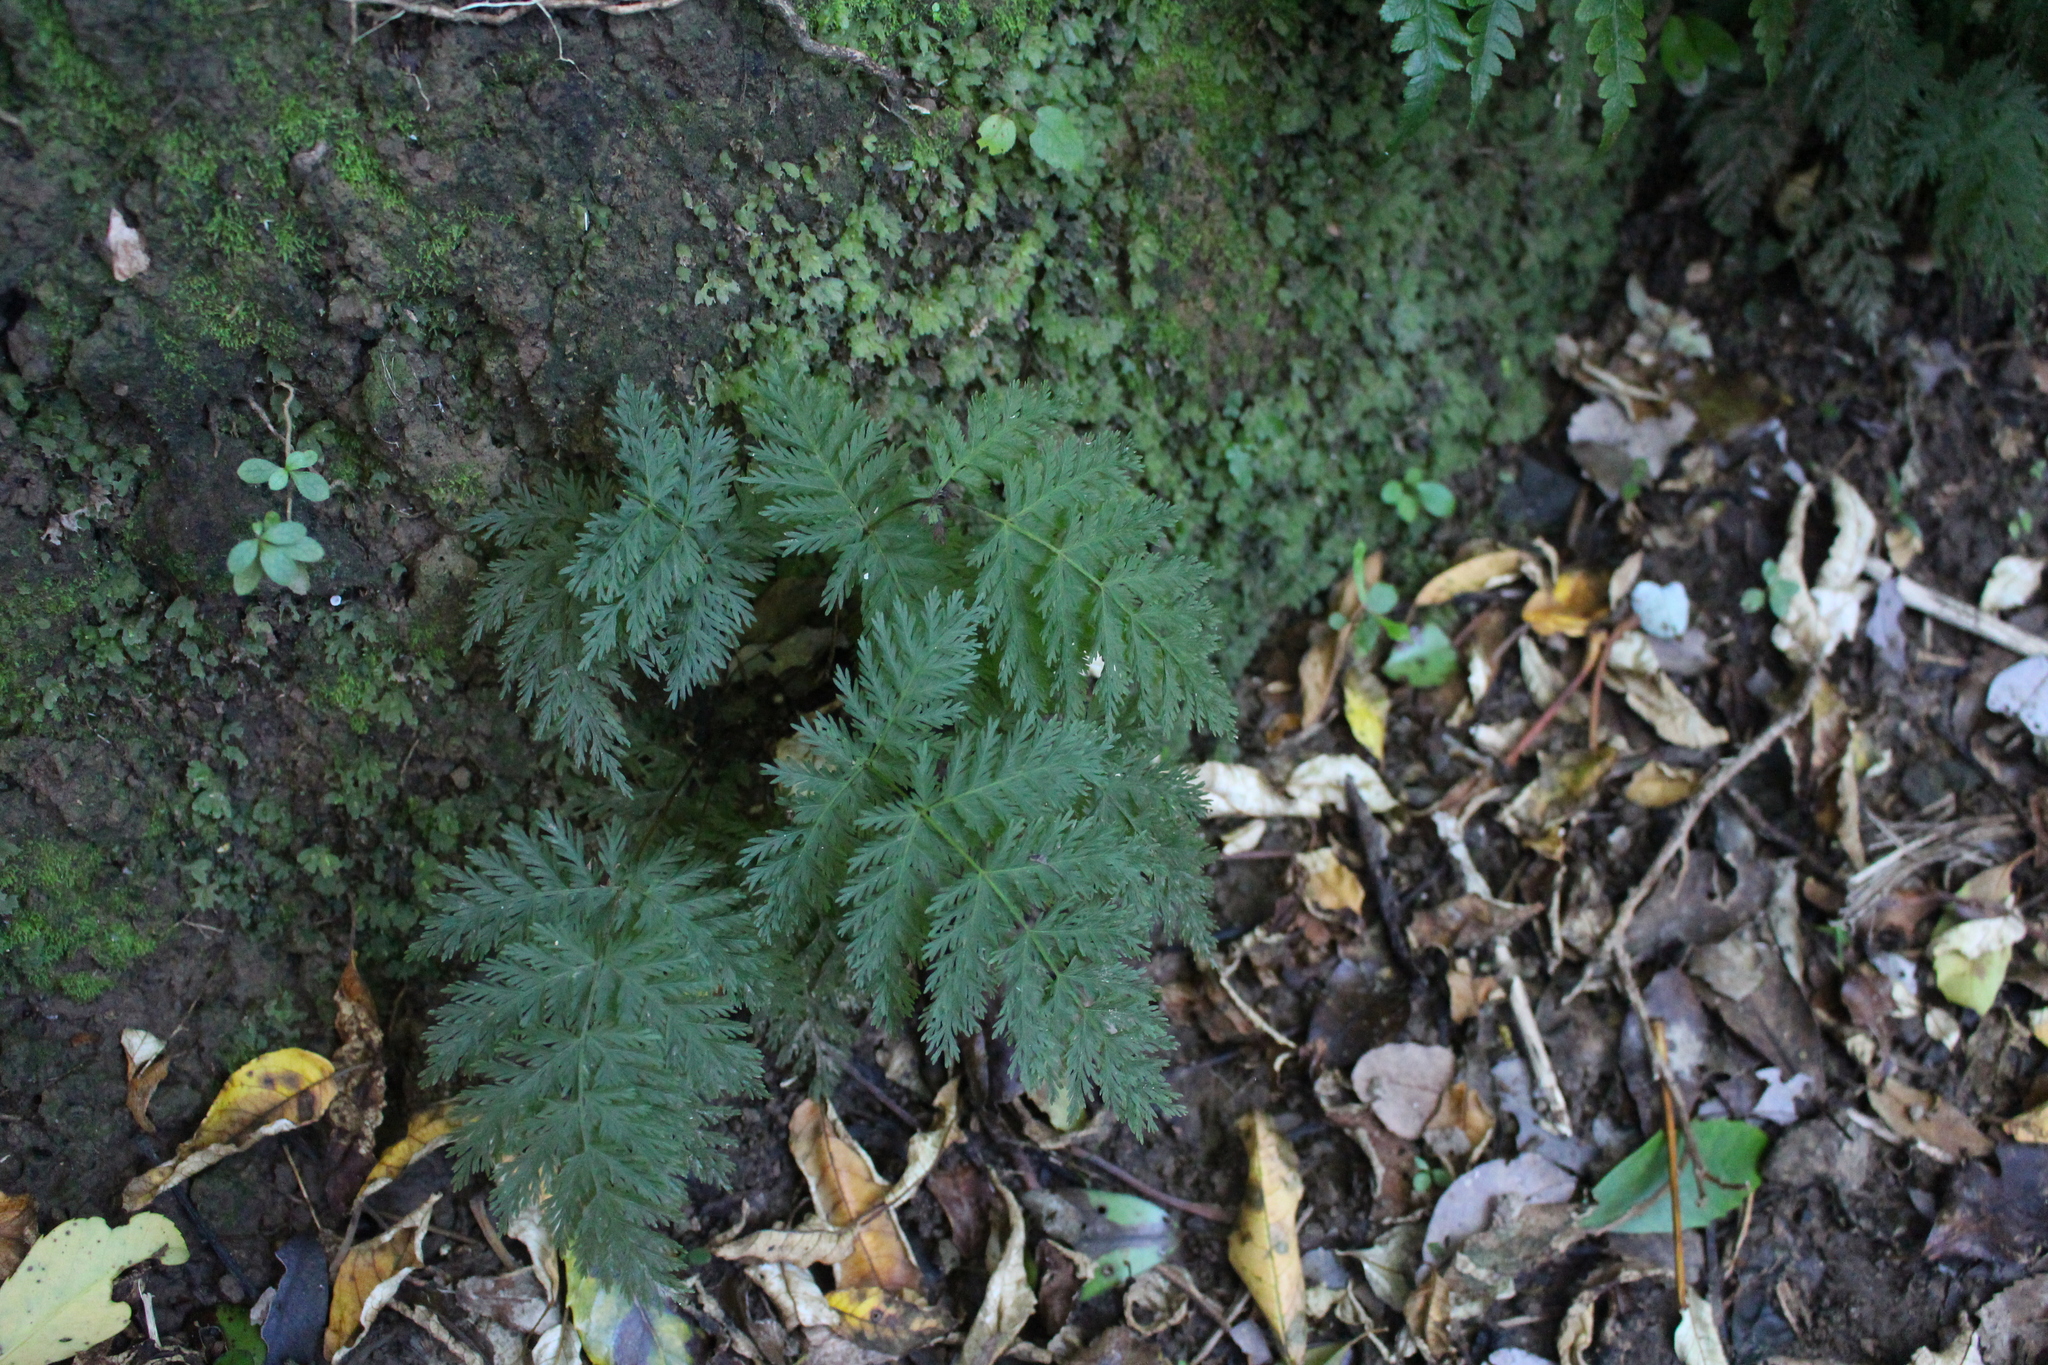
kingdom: Plantae
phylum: Tracheophyta
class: Polypodiopsida
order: Osmundales
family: Osmundaceae
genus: Leptopteris
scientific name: Leptopteris hymenophylloides
